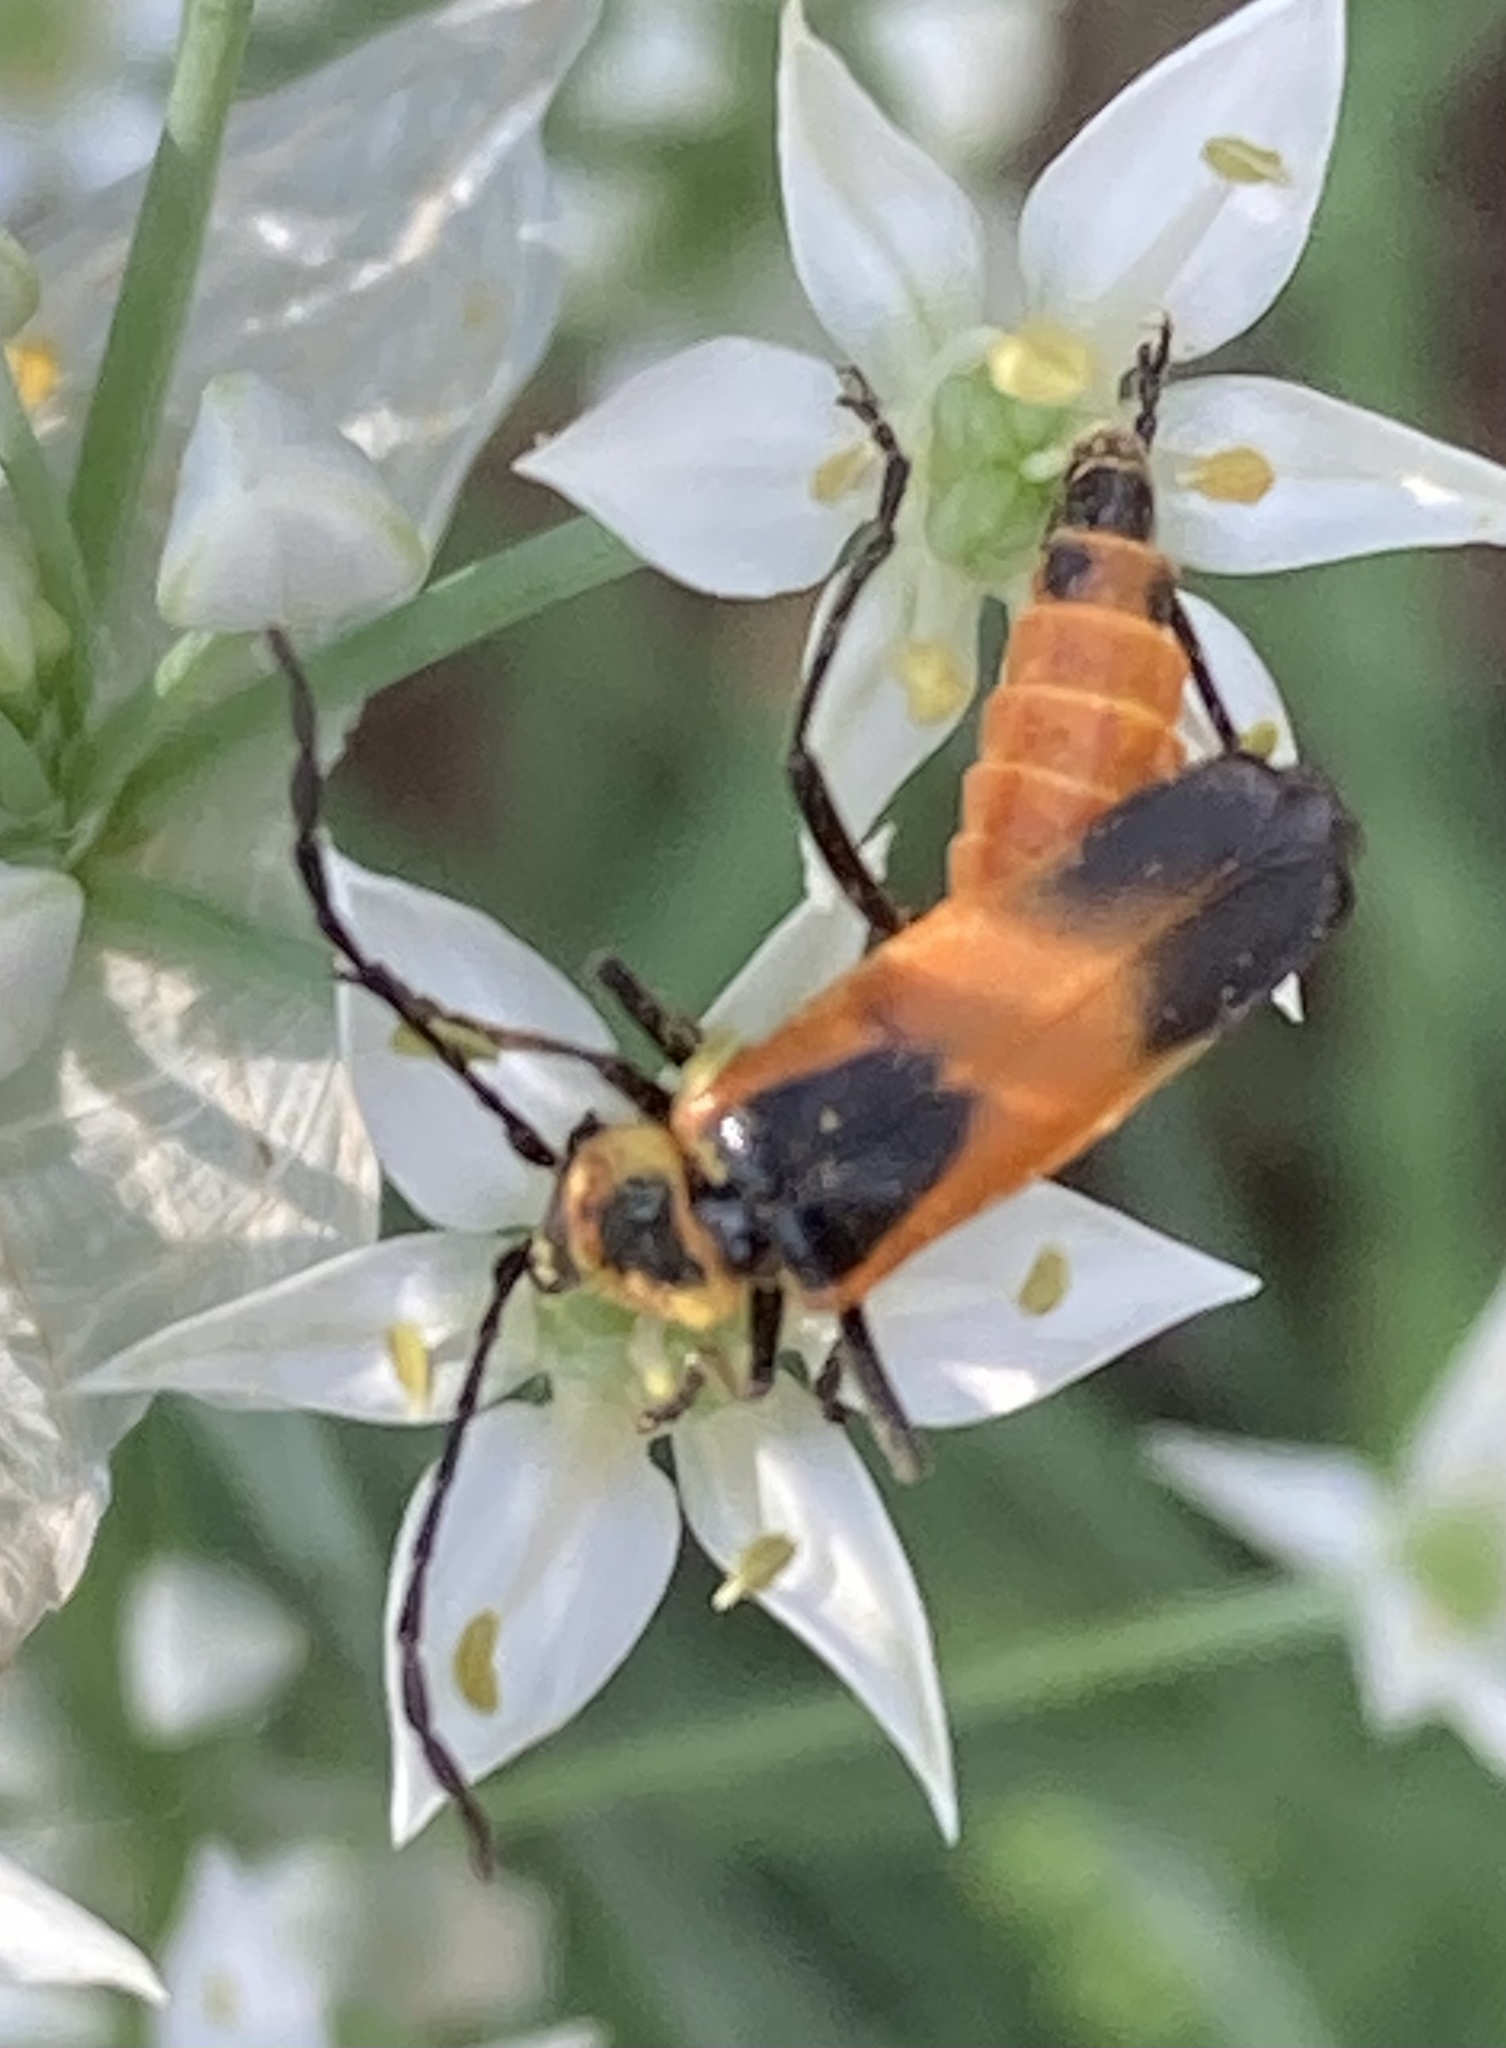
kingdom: Animalia
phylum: Arthropoda
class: Insecta
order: Coleoptera
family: Cantharidae
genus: Chauliognathus
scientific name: Chauliognathus
